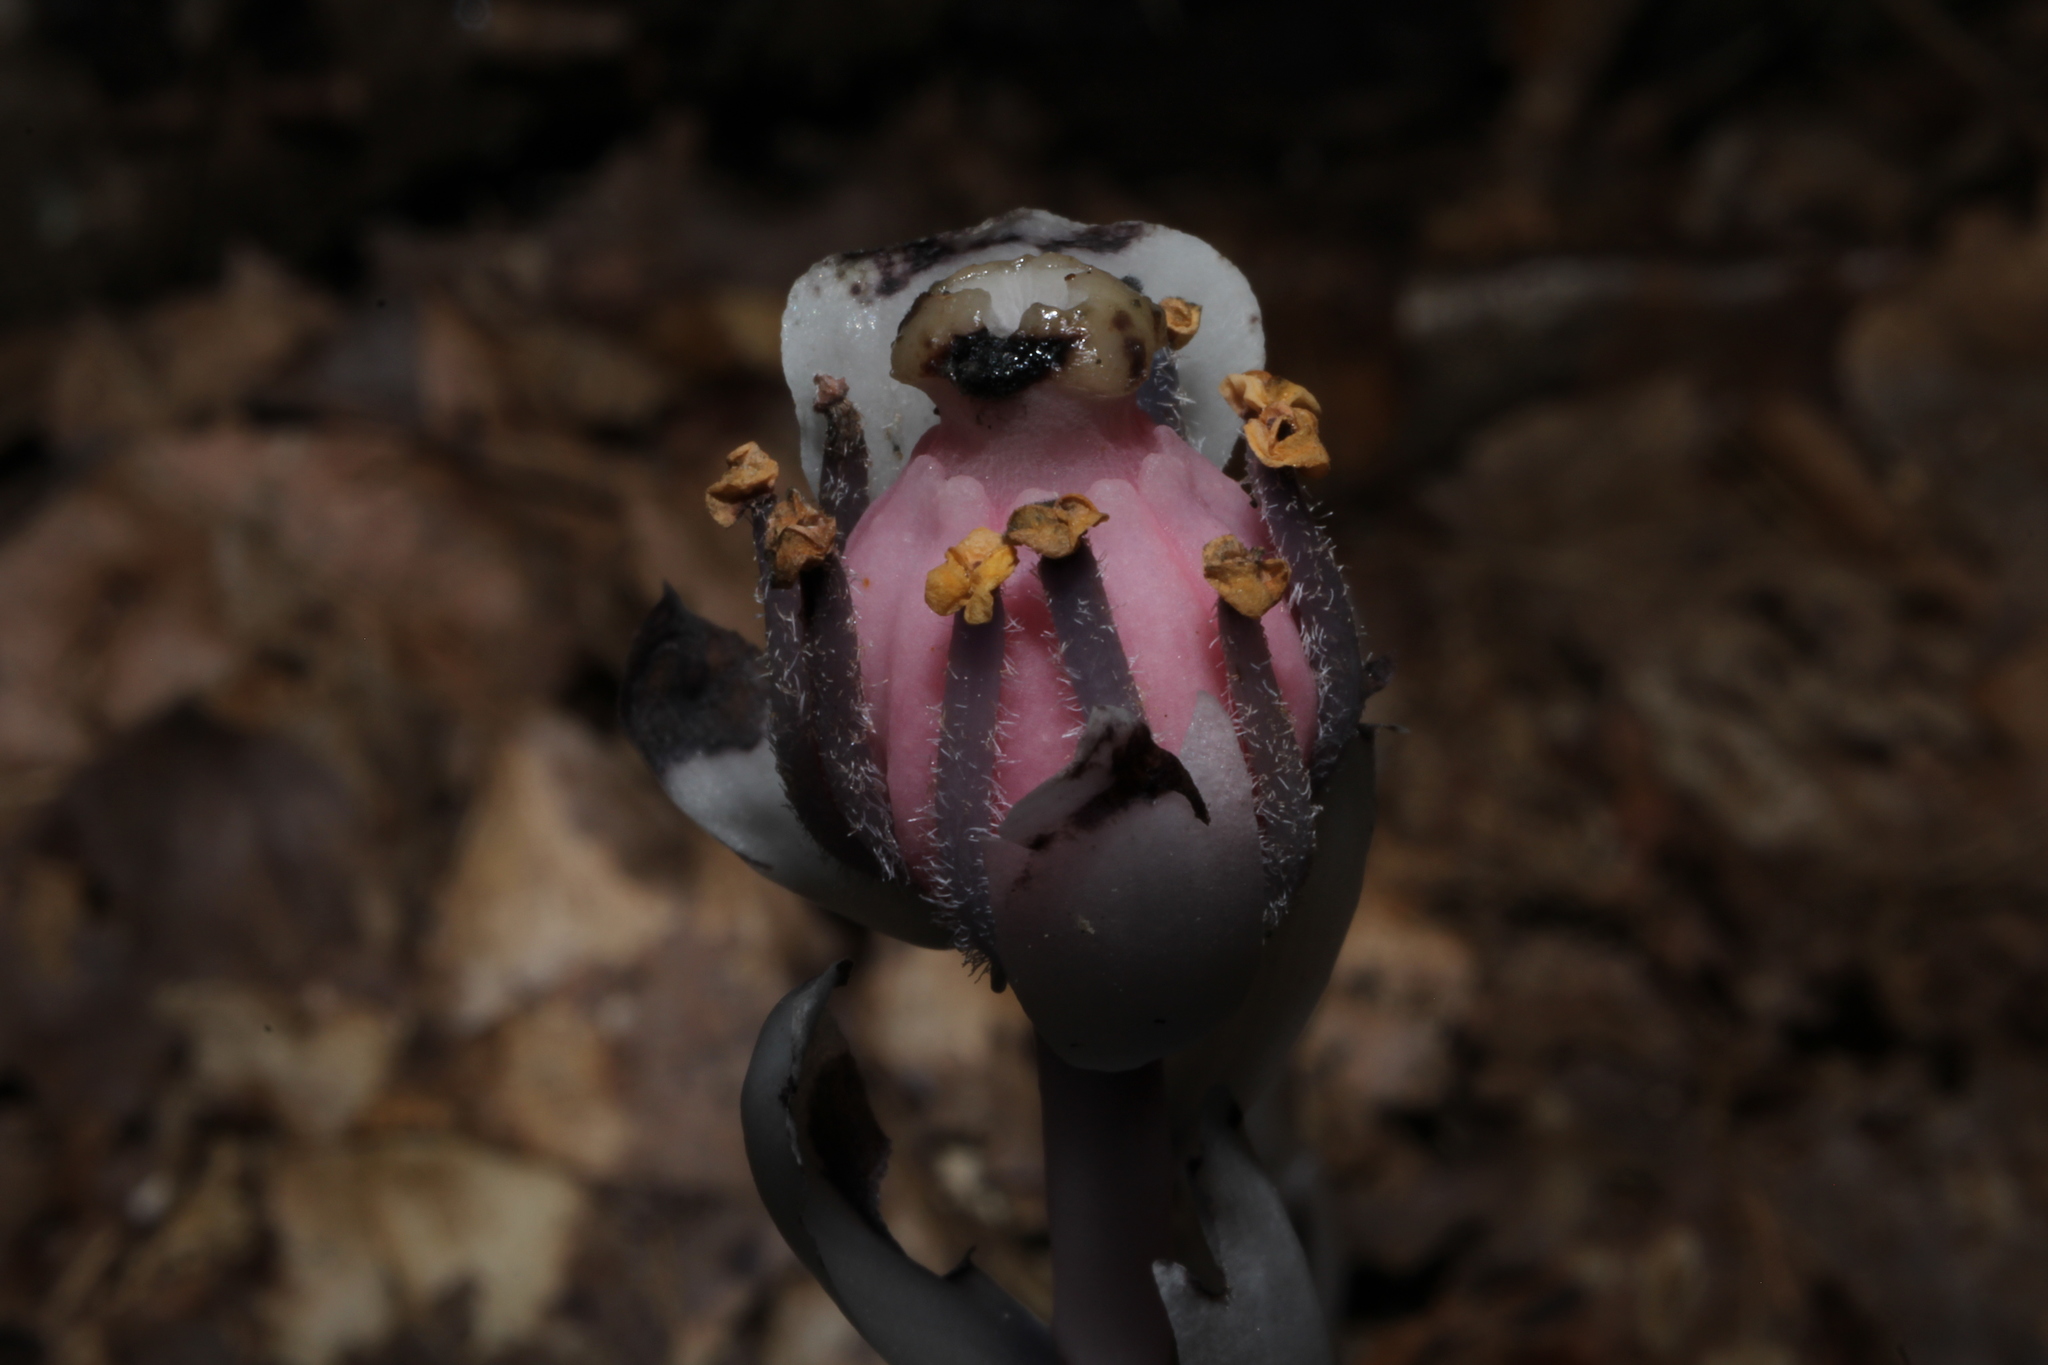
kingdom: Plantae
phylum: Tracheophyta
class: Magnoliopsida
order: Ericales
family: Ericaceae
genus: Monotropa
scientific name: Monotropa uniflora
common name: Convulsion root
